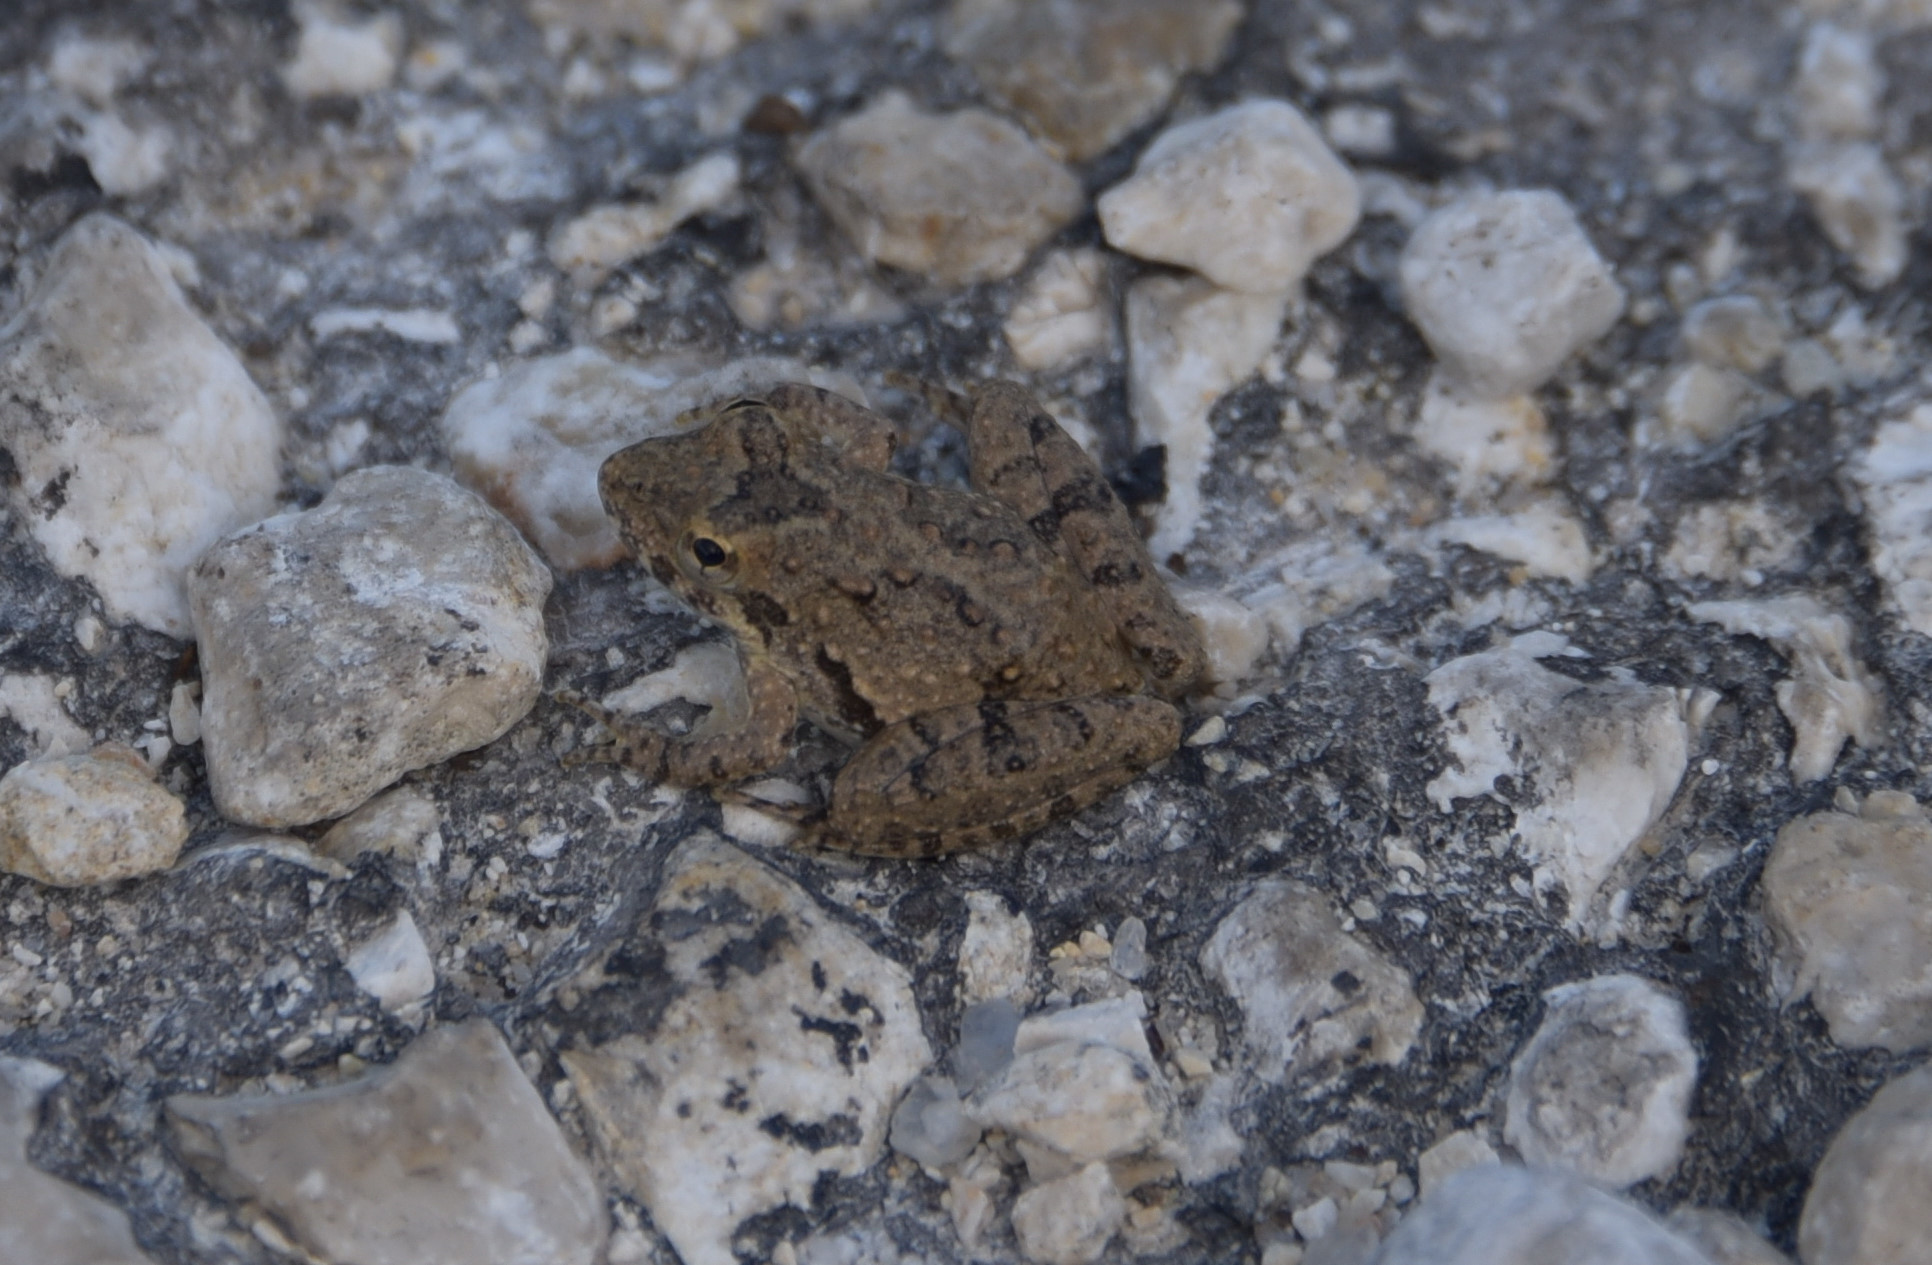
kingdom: Animalia
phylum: Chordata
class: Amphibia
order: Anura
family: Hylidae
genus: Acris
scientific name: Acris blanchardi
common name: Blanchard's cricket frog
